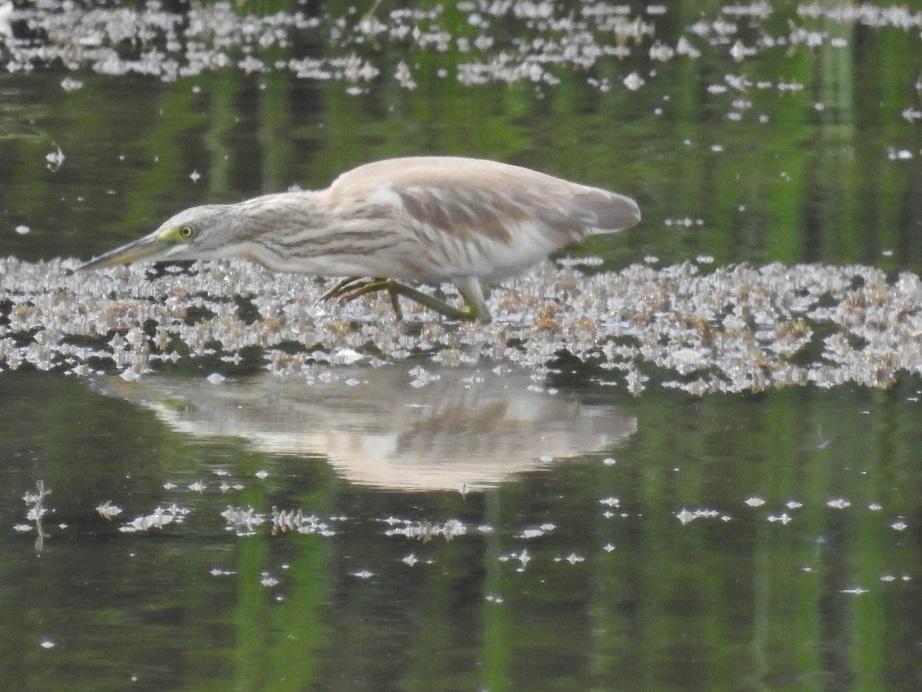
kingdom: Animalia
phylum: Chordata
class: Aves
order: Pelecaniformes
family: Ardeidae
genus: Ardeola
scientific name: Ardeola ralloides
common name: Squacco heron
